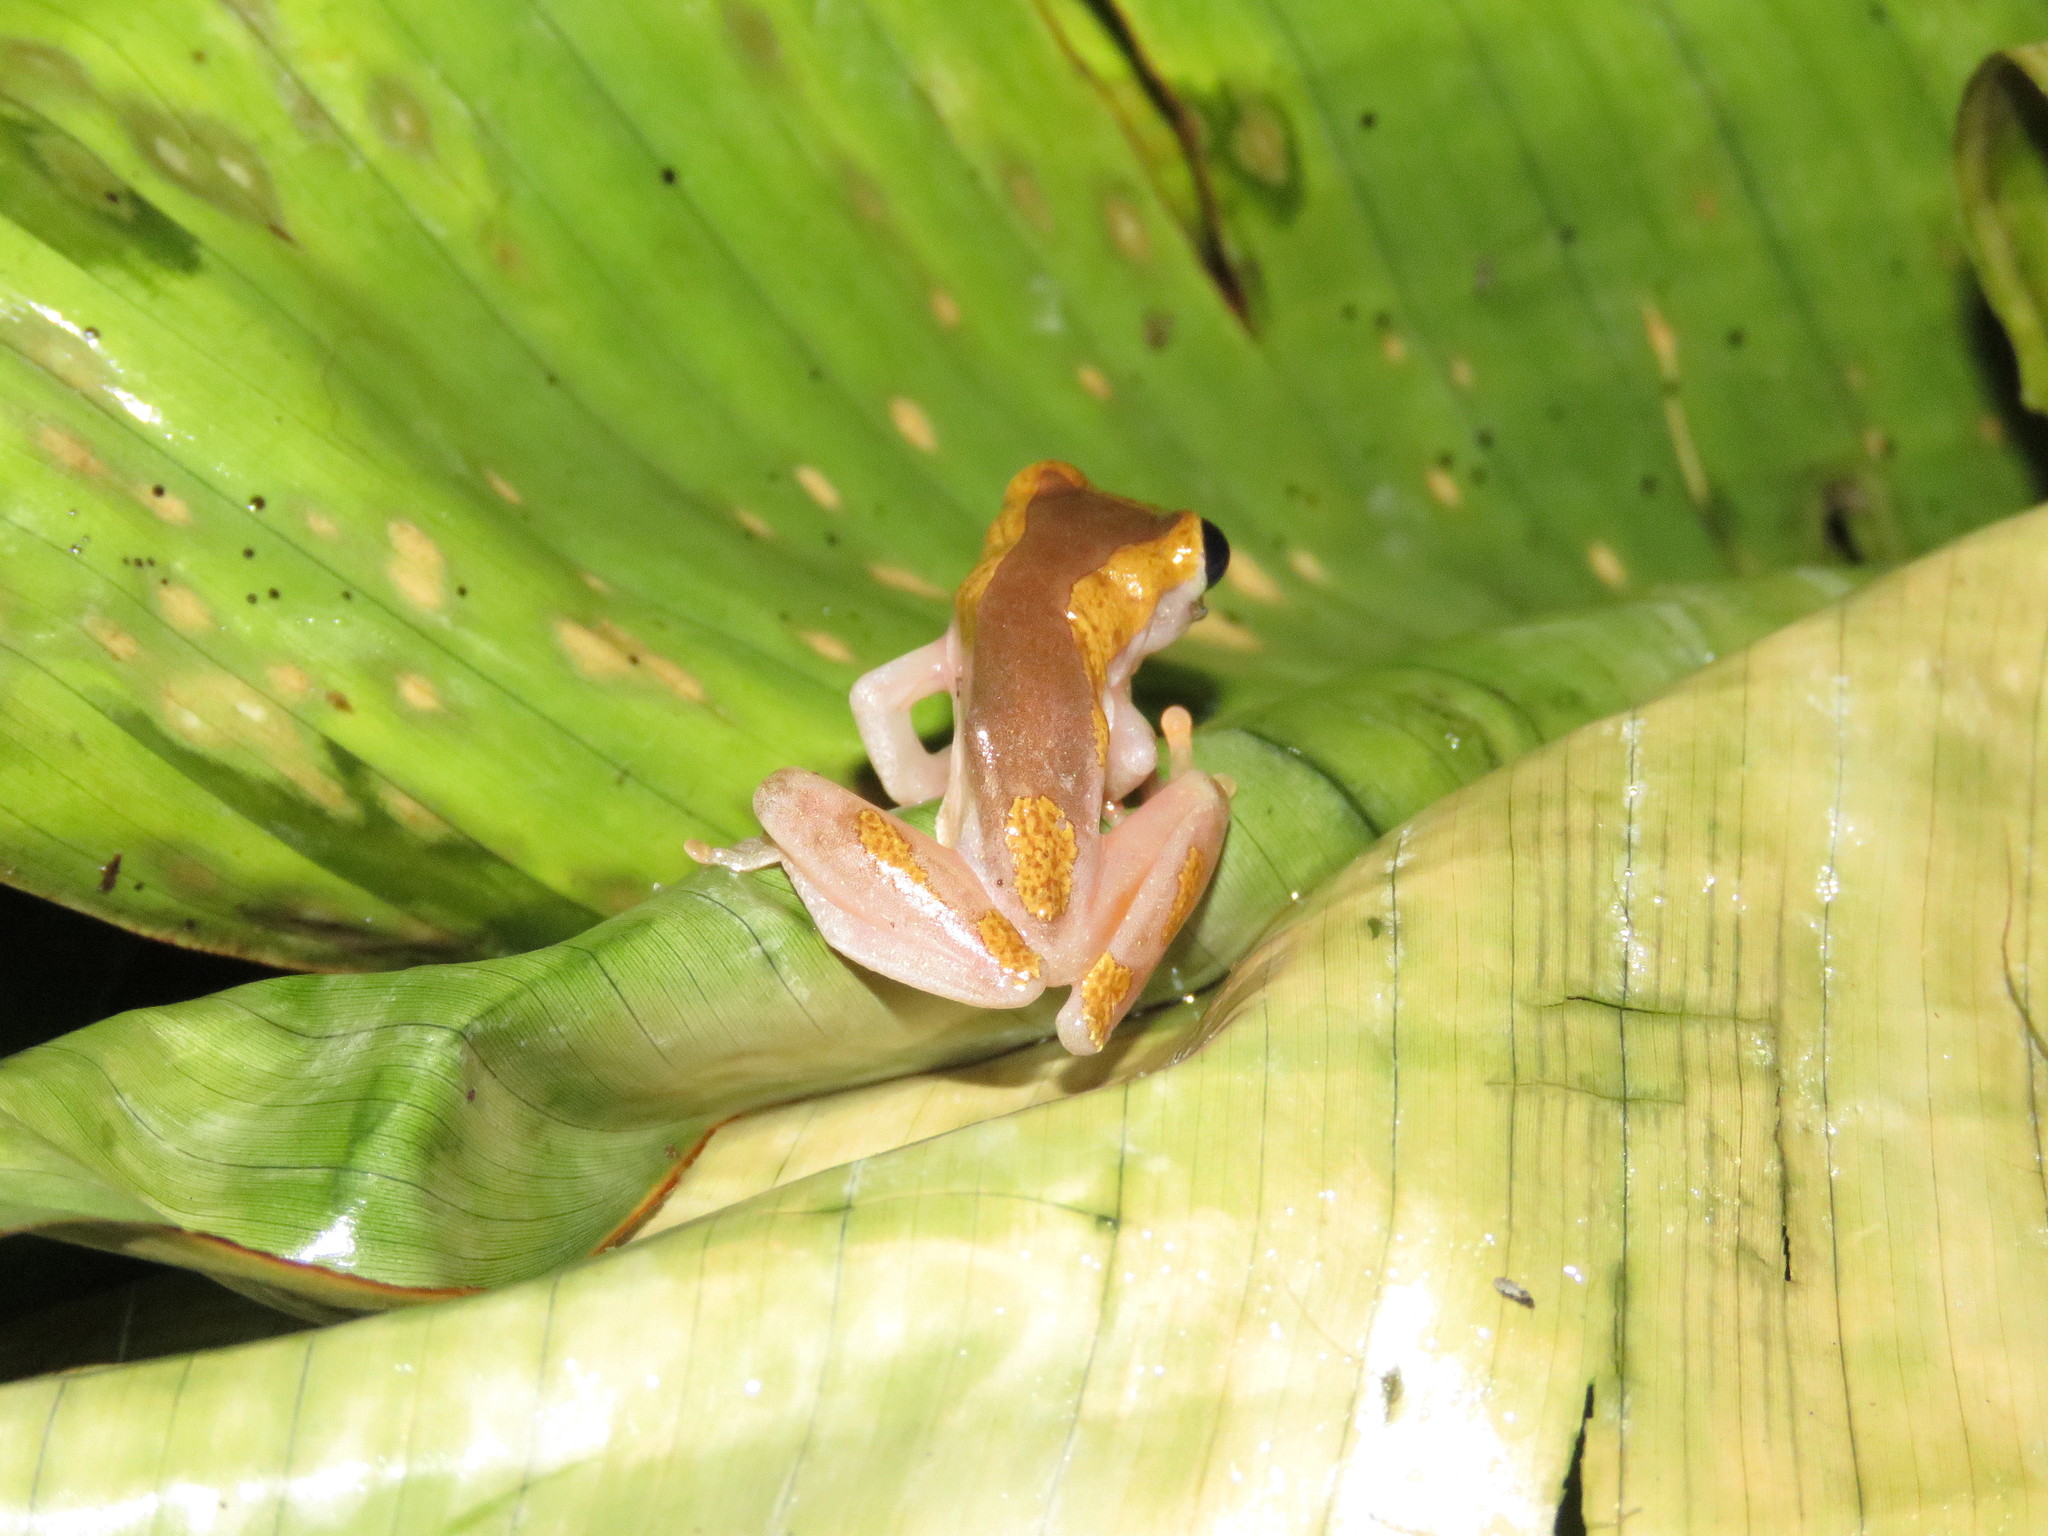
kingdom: Animalia
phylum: Chordata
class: Amphibia
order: Anura
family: Hylidae
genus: Dendropsophus
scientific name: Dendropsophus arndti
